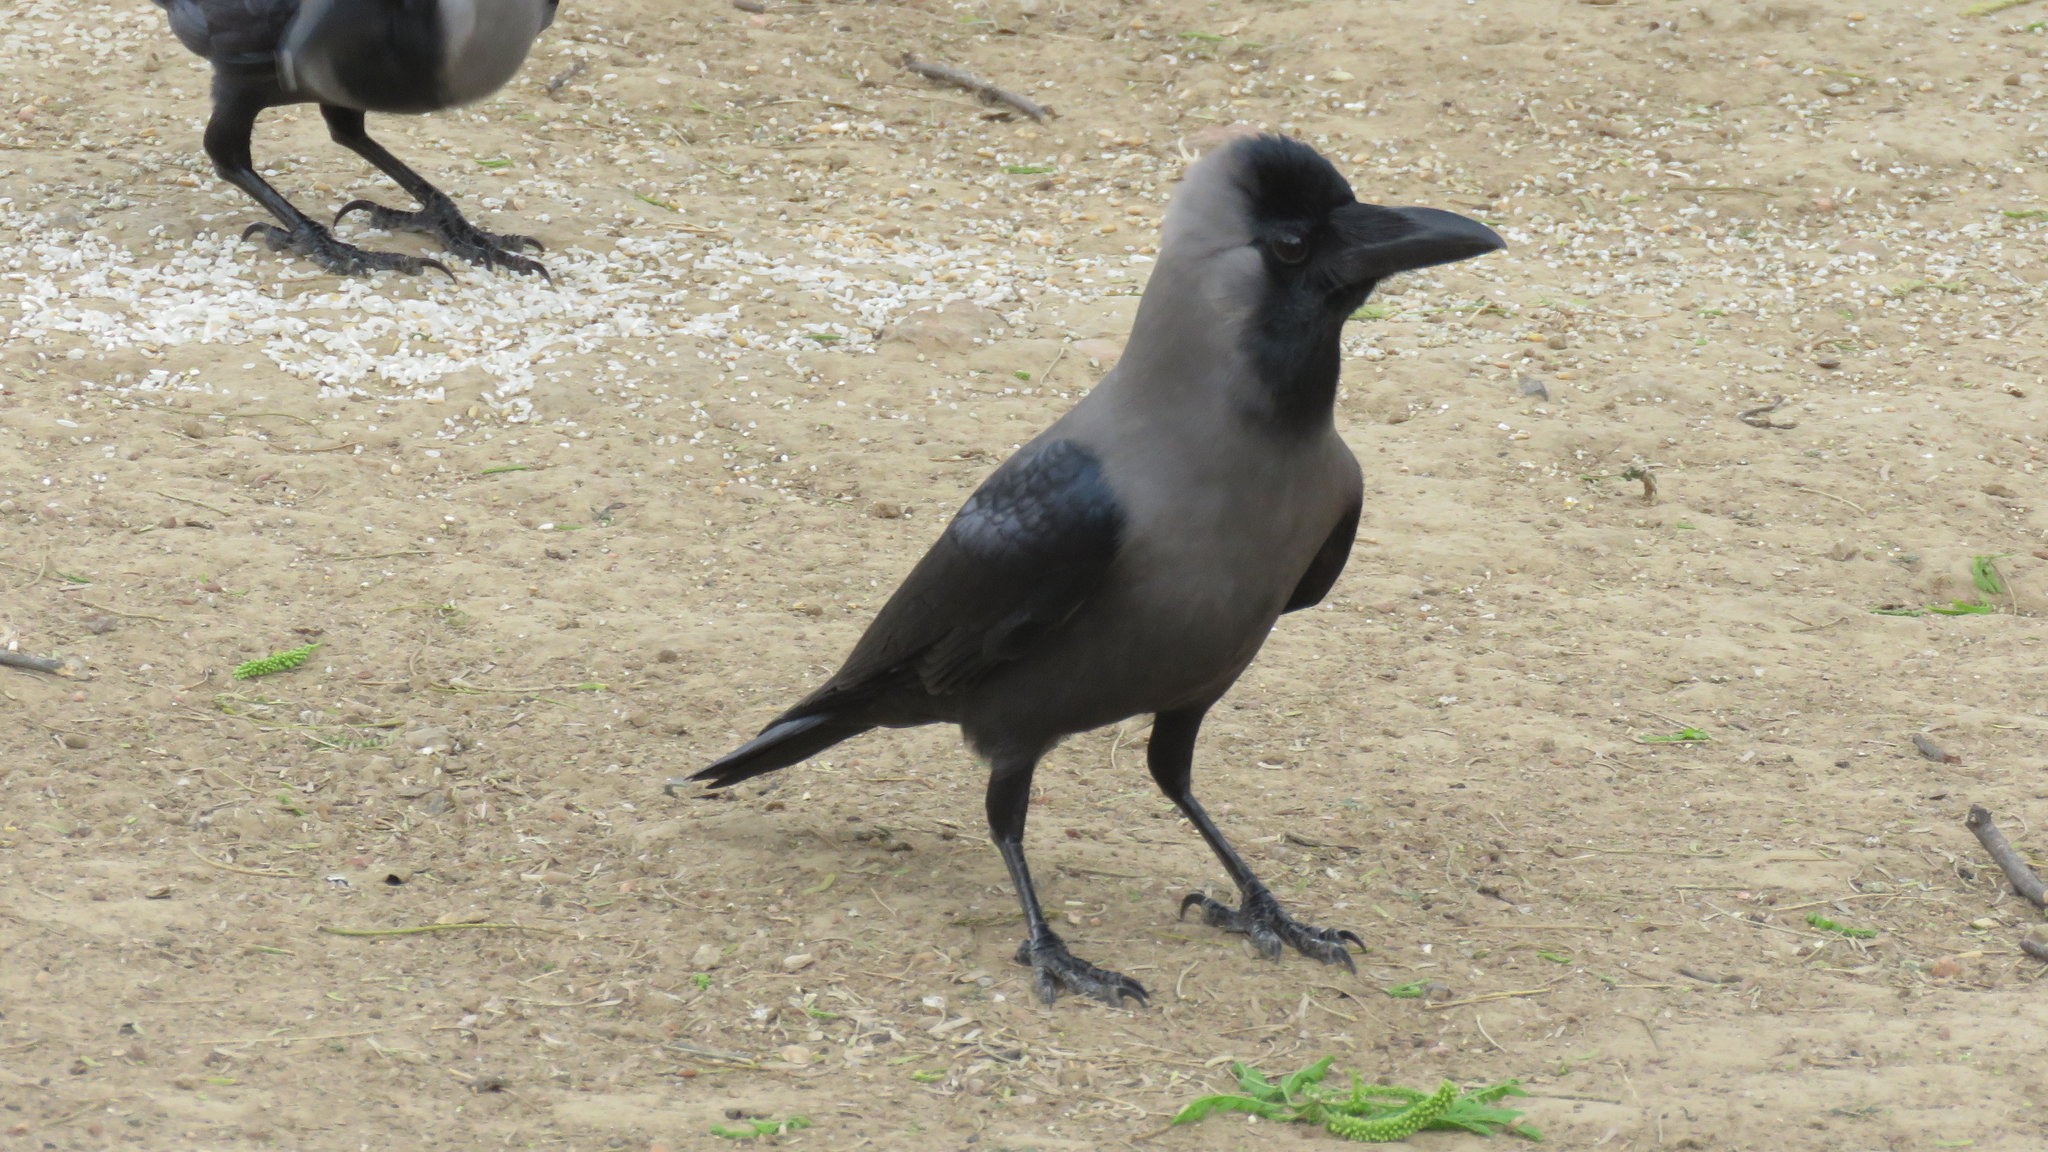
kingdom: Animalia
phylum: Chordata
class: Aves
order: Passeriformes
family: Corvidae
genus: Corvus
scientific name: Corvus splendens
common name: House crow
